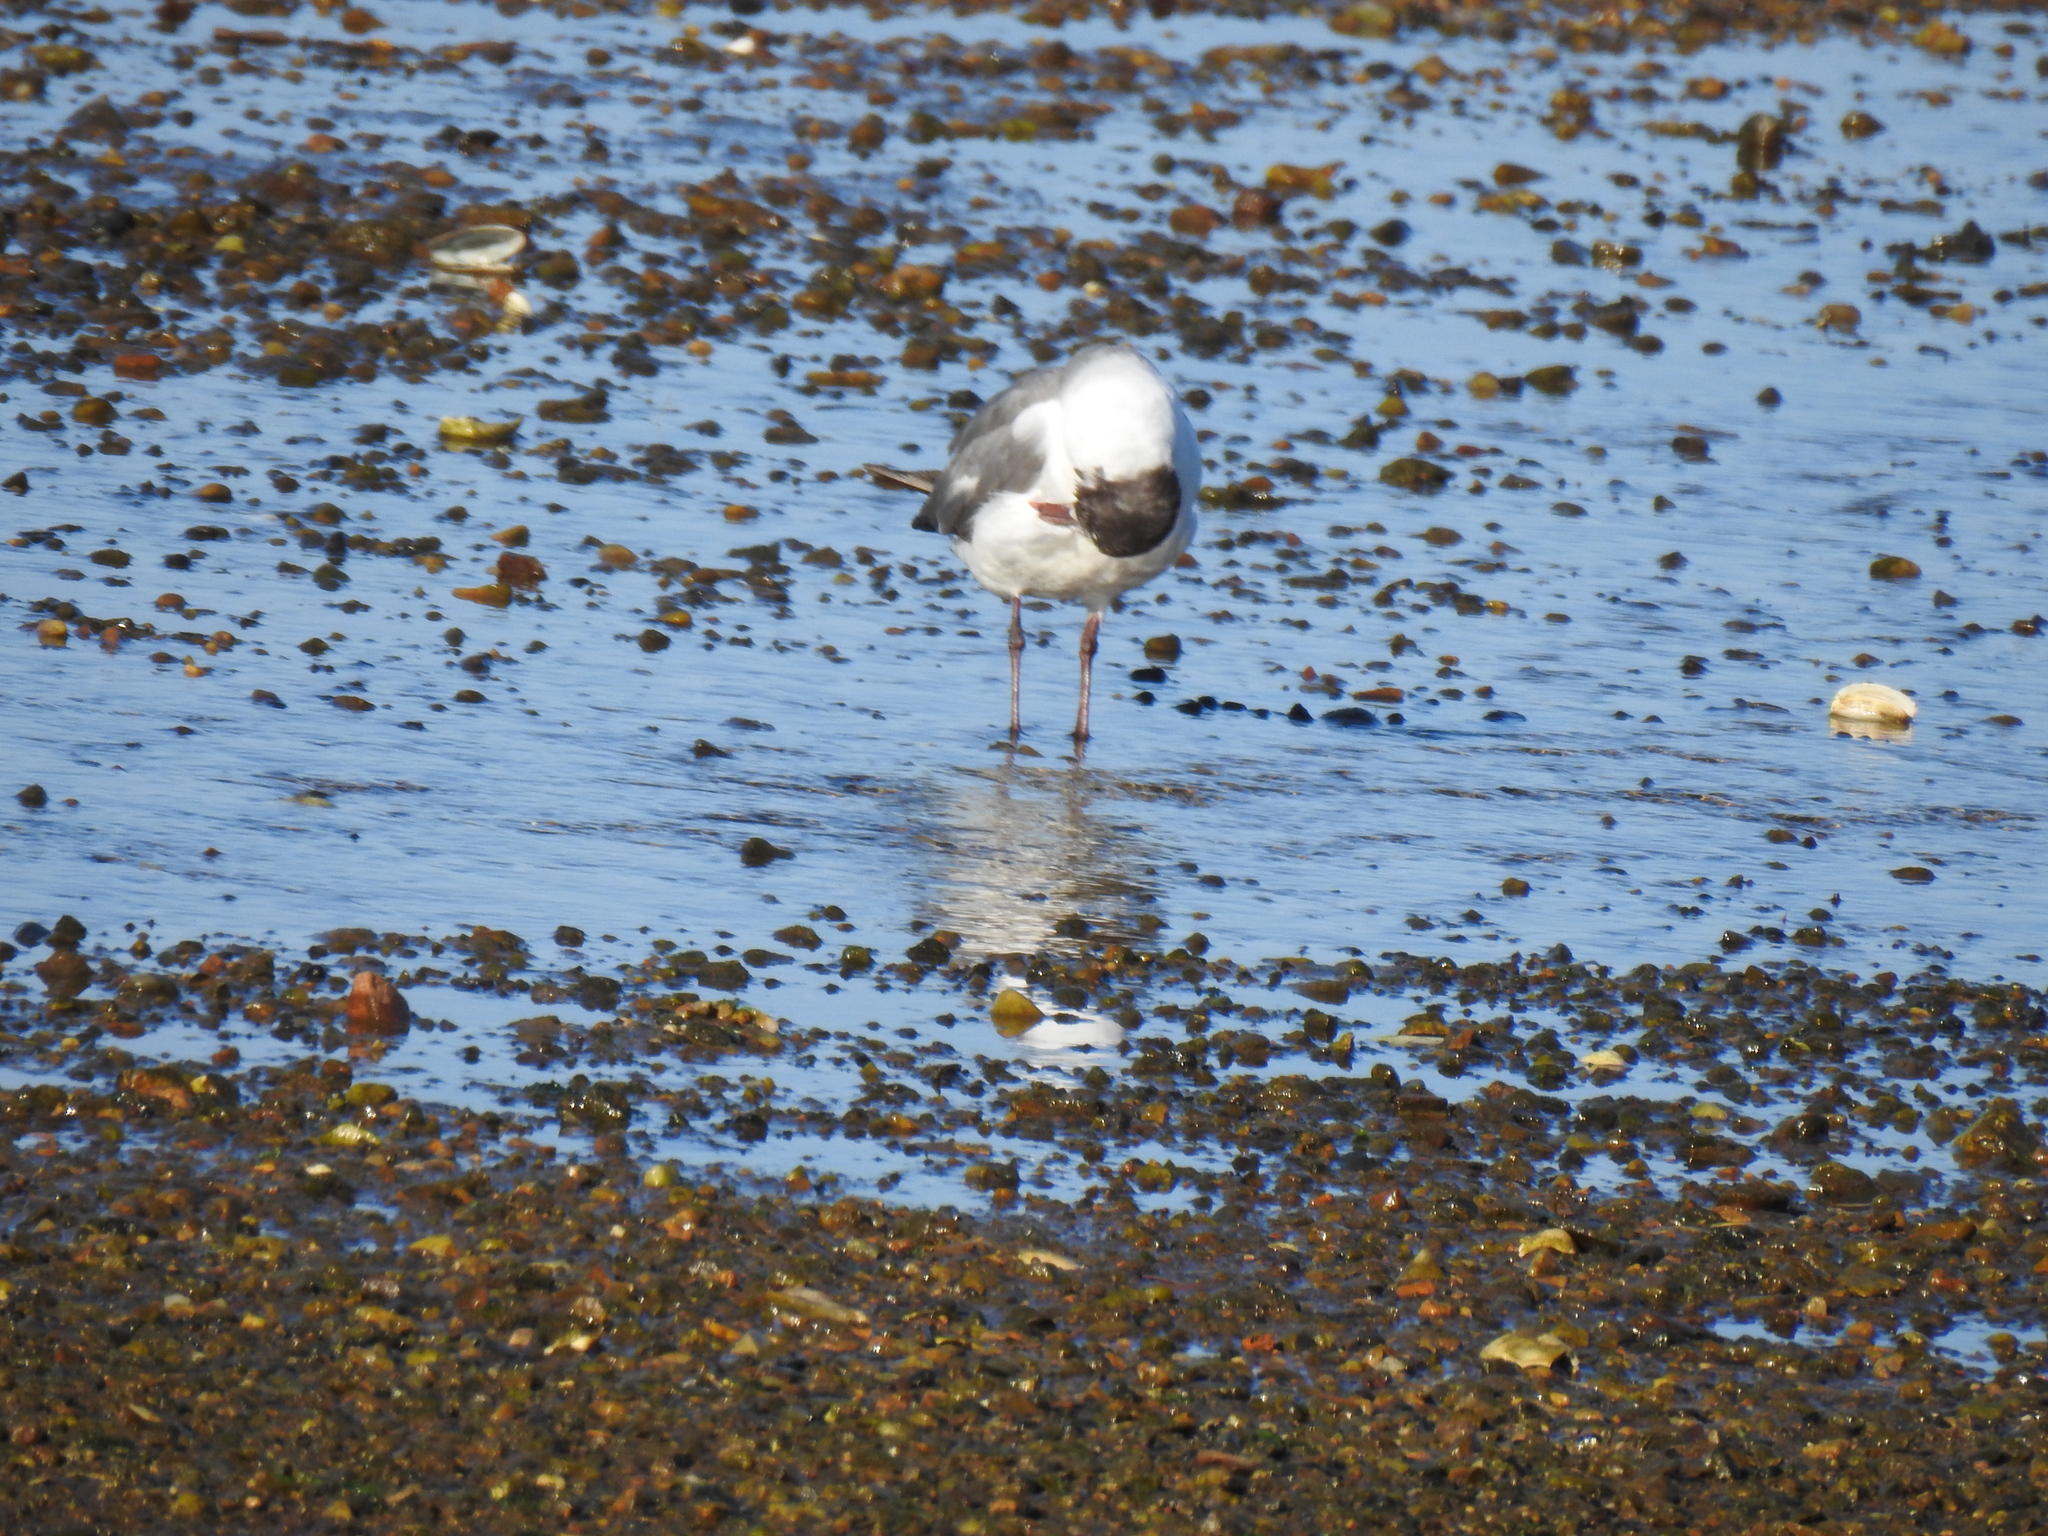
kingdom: Animalia
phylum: Chordata
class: Aves
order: Charadriiformes
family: Laridae
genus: Leucophaeus
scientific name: Leucophaeus atricilla
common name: Laughing gull
